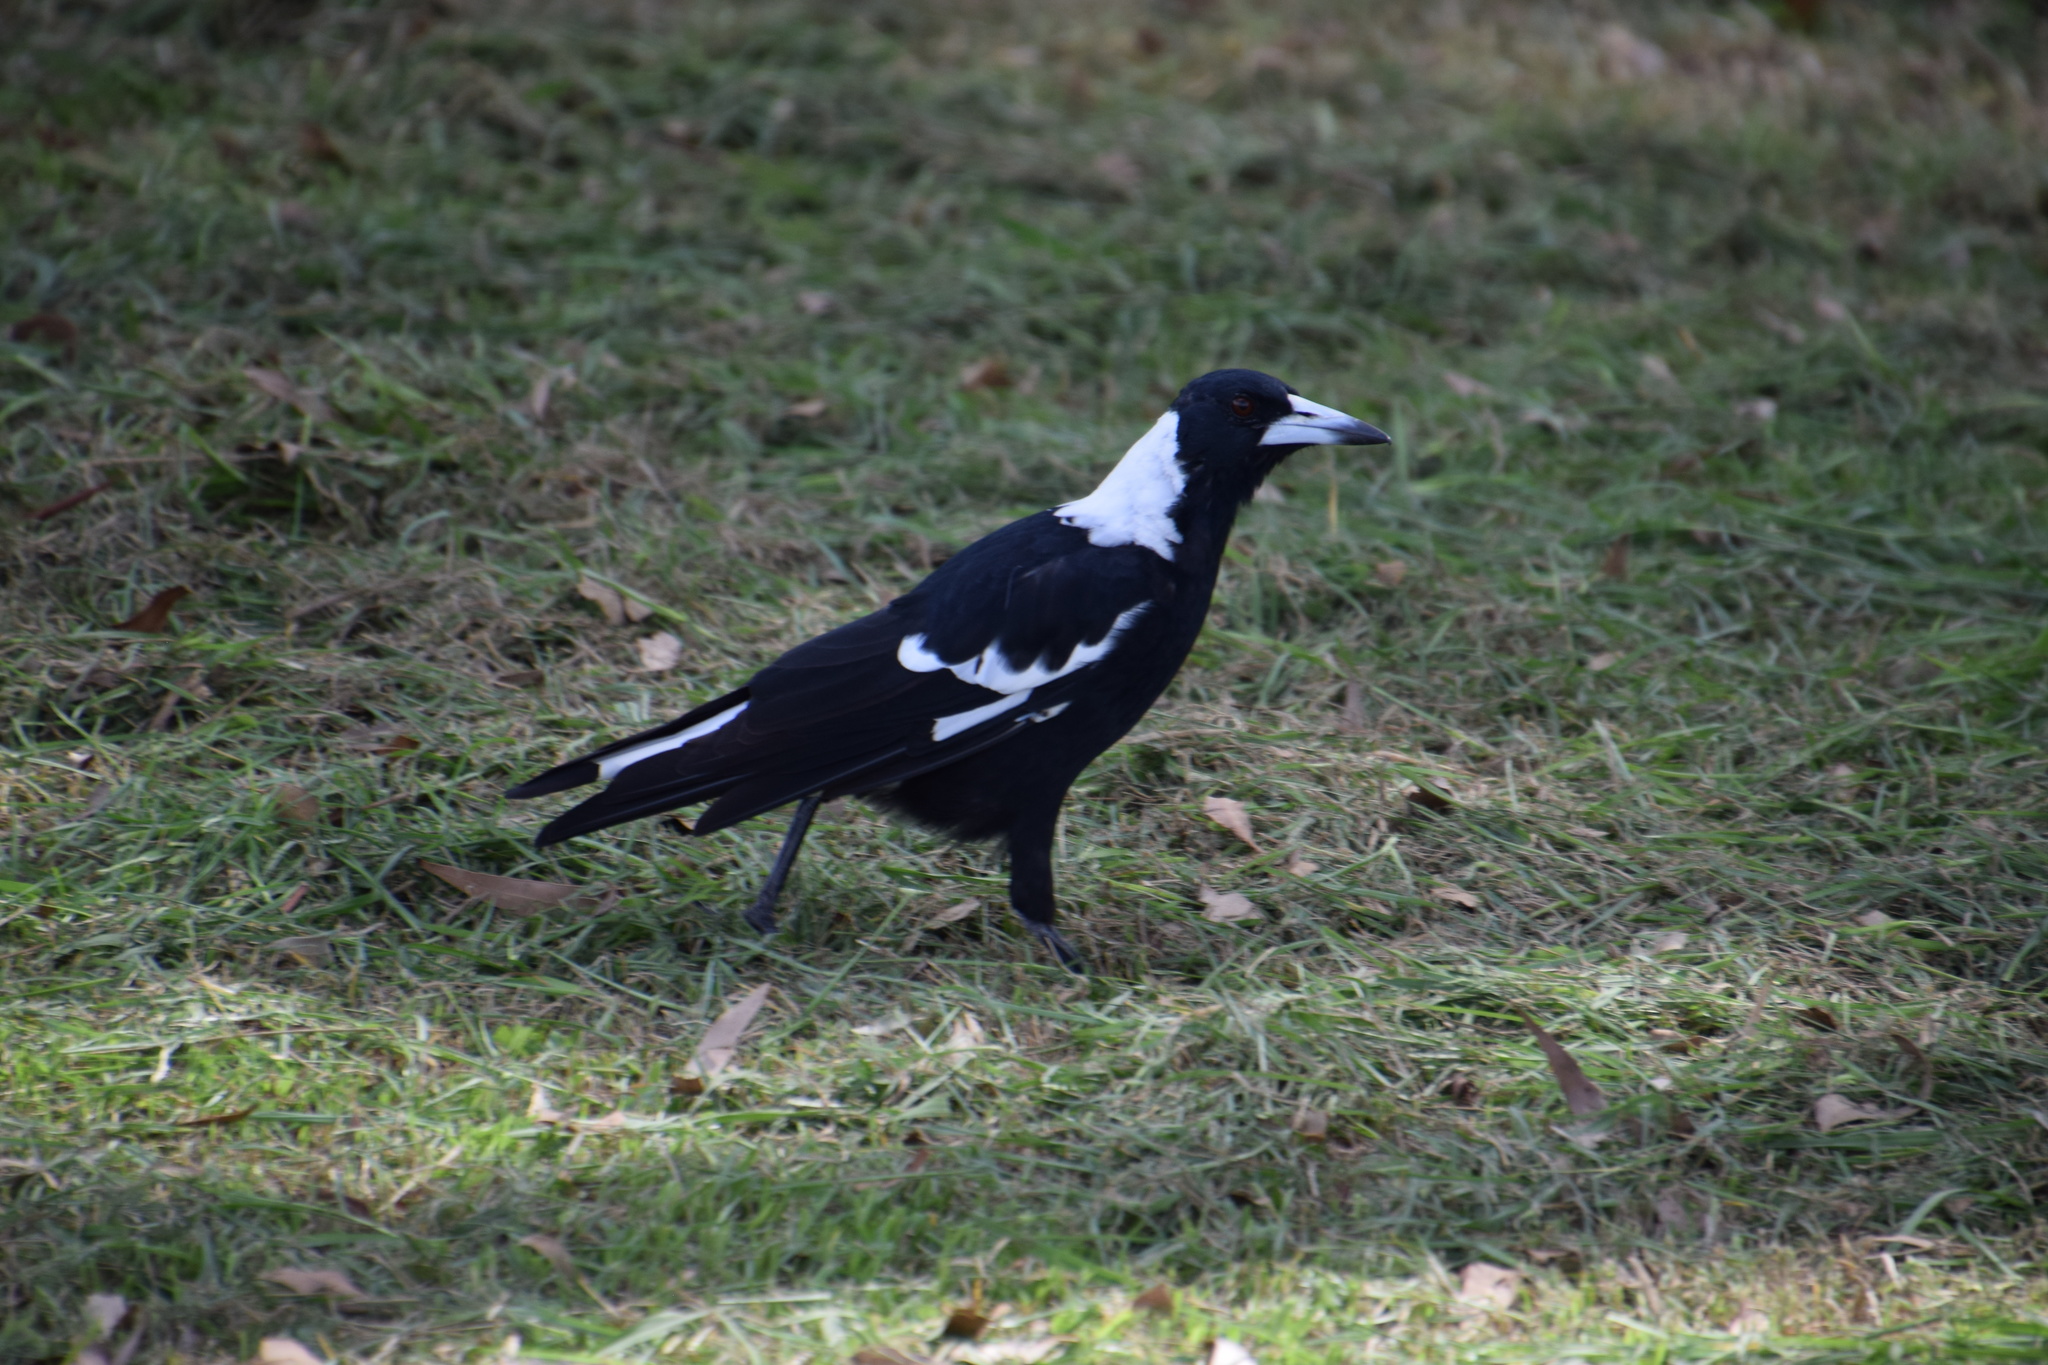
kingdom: Animalia
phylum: Chordata
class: Aves
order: Passeriformes
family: Cracticidae
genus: Gymnorhina
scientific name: Gymnorhina tibicen
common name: Australian magpie
